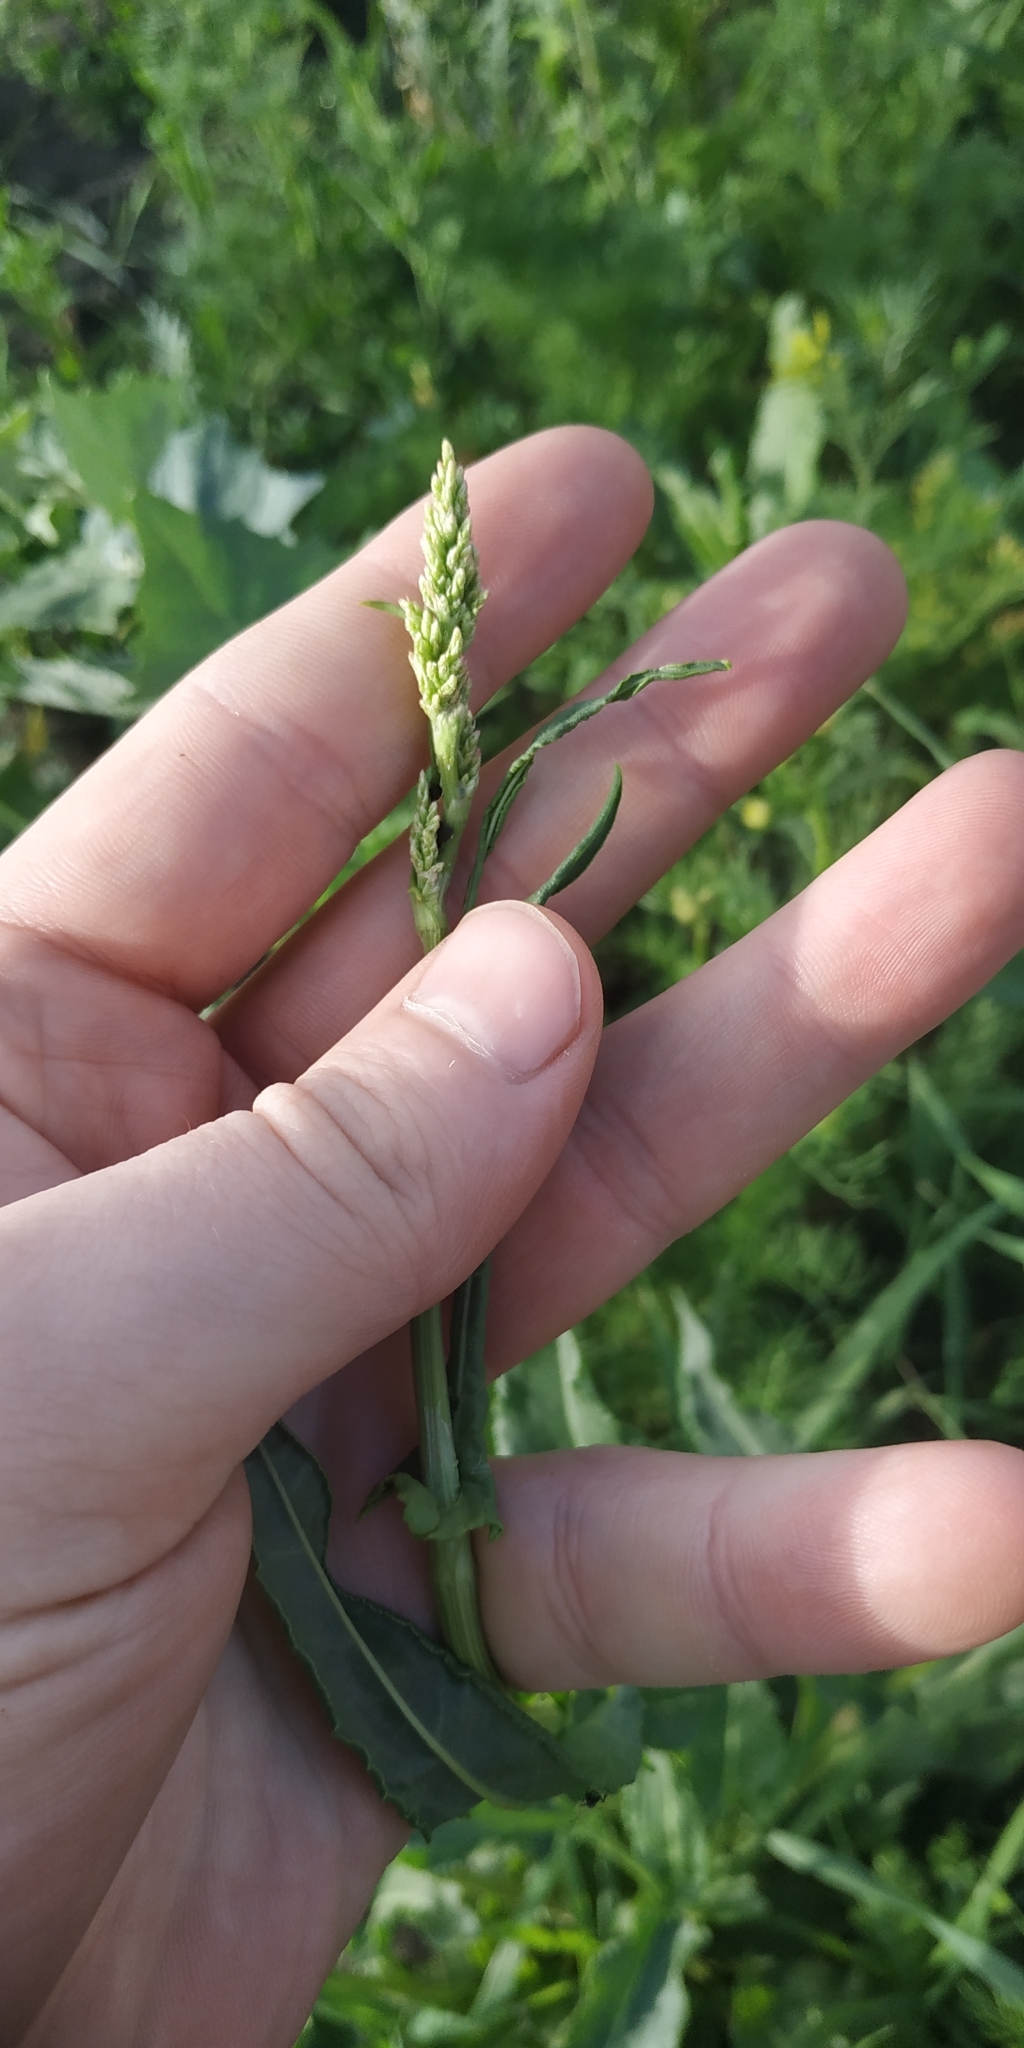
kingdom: Plantae
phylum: Tracheophyta
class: Magnoliopsida
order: Caryophyllales
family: Polygonaceae
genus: Rumex
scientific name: Rumex thyrsiflorus
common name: Garden sorrel
